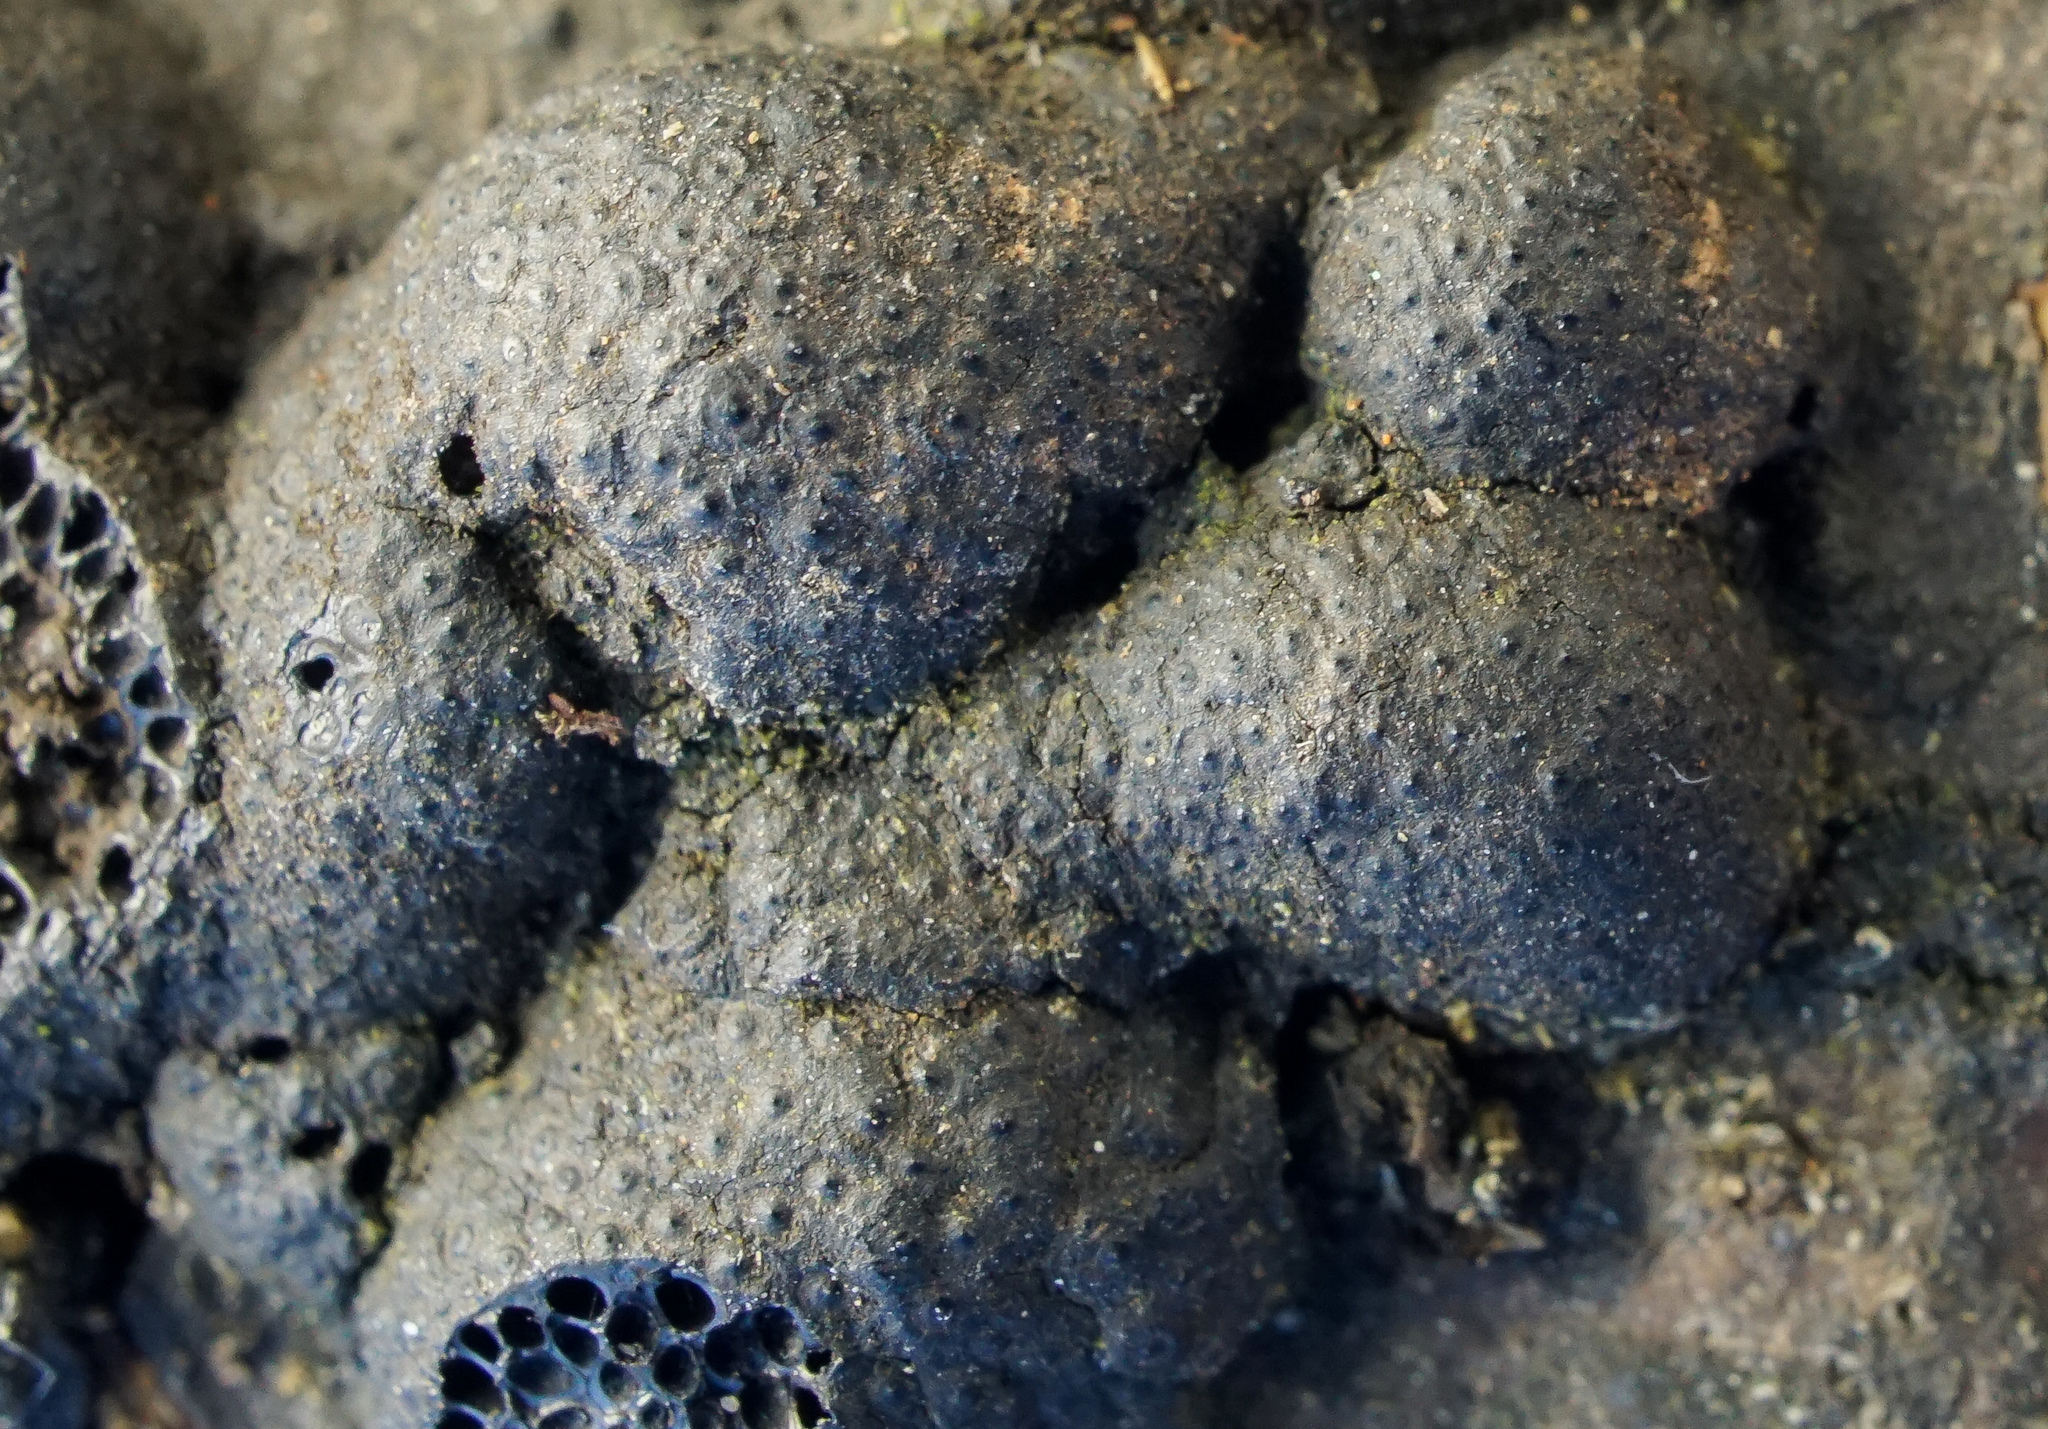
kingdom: Fungi
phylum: Ascomycota
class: Sordariomycetes
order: Xylariales
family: Hypoxylaceae
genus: Annulohypoxylon
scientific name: Annulohypoxylon annulatum
